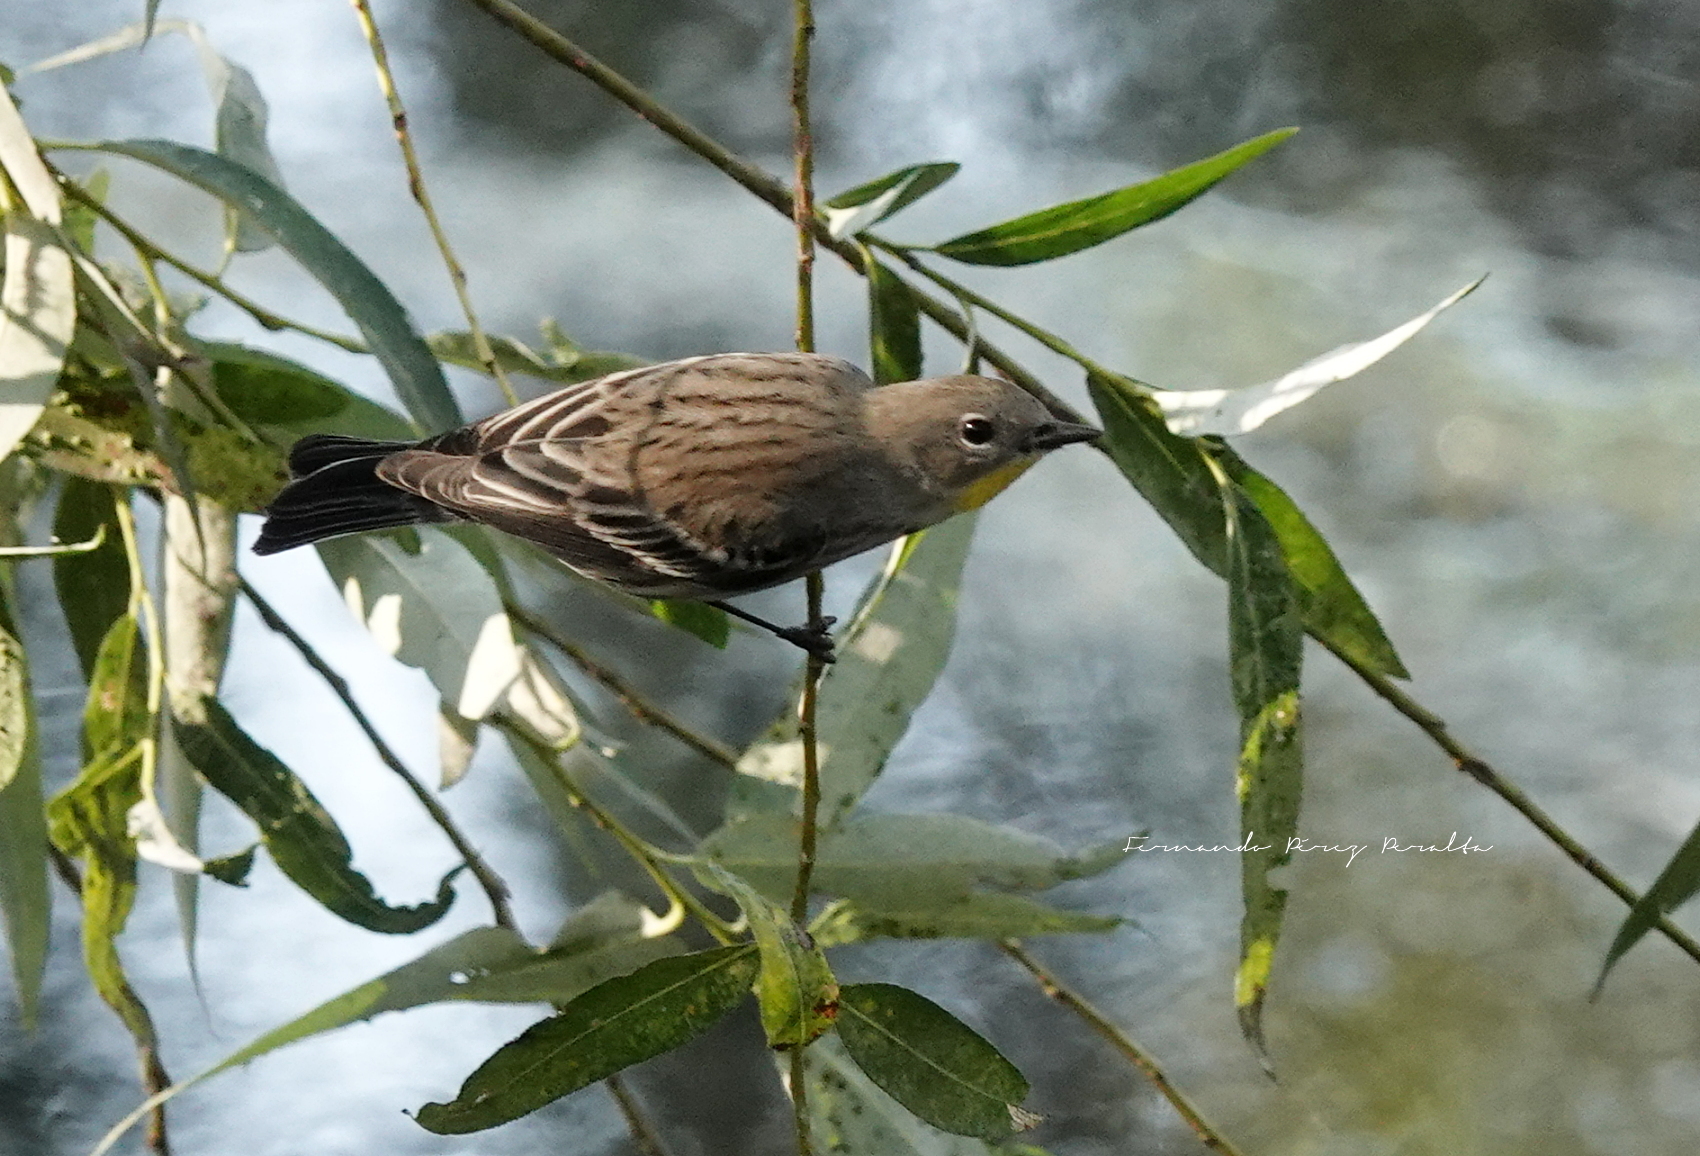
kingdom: Animalia
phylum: Chordata
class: Aves
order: Passeriformes
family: Parulidae
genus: Setophaga
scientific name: Setophaga coronata
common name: Myrtle warbler
